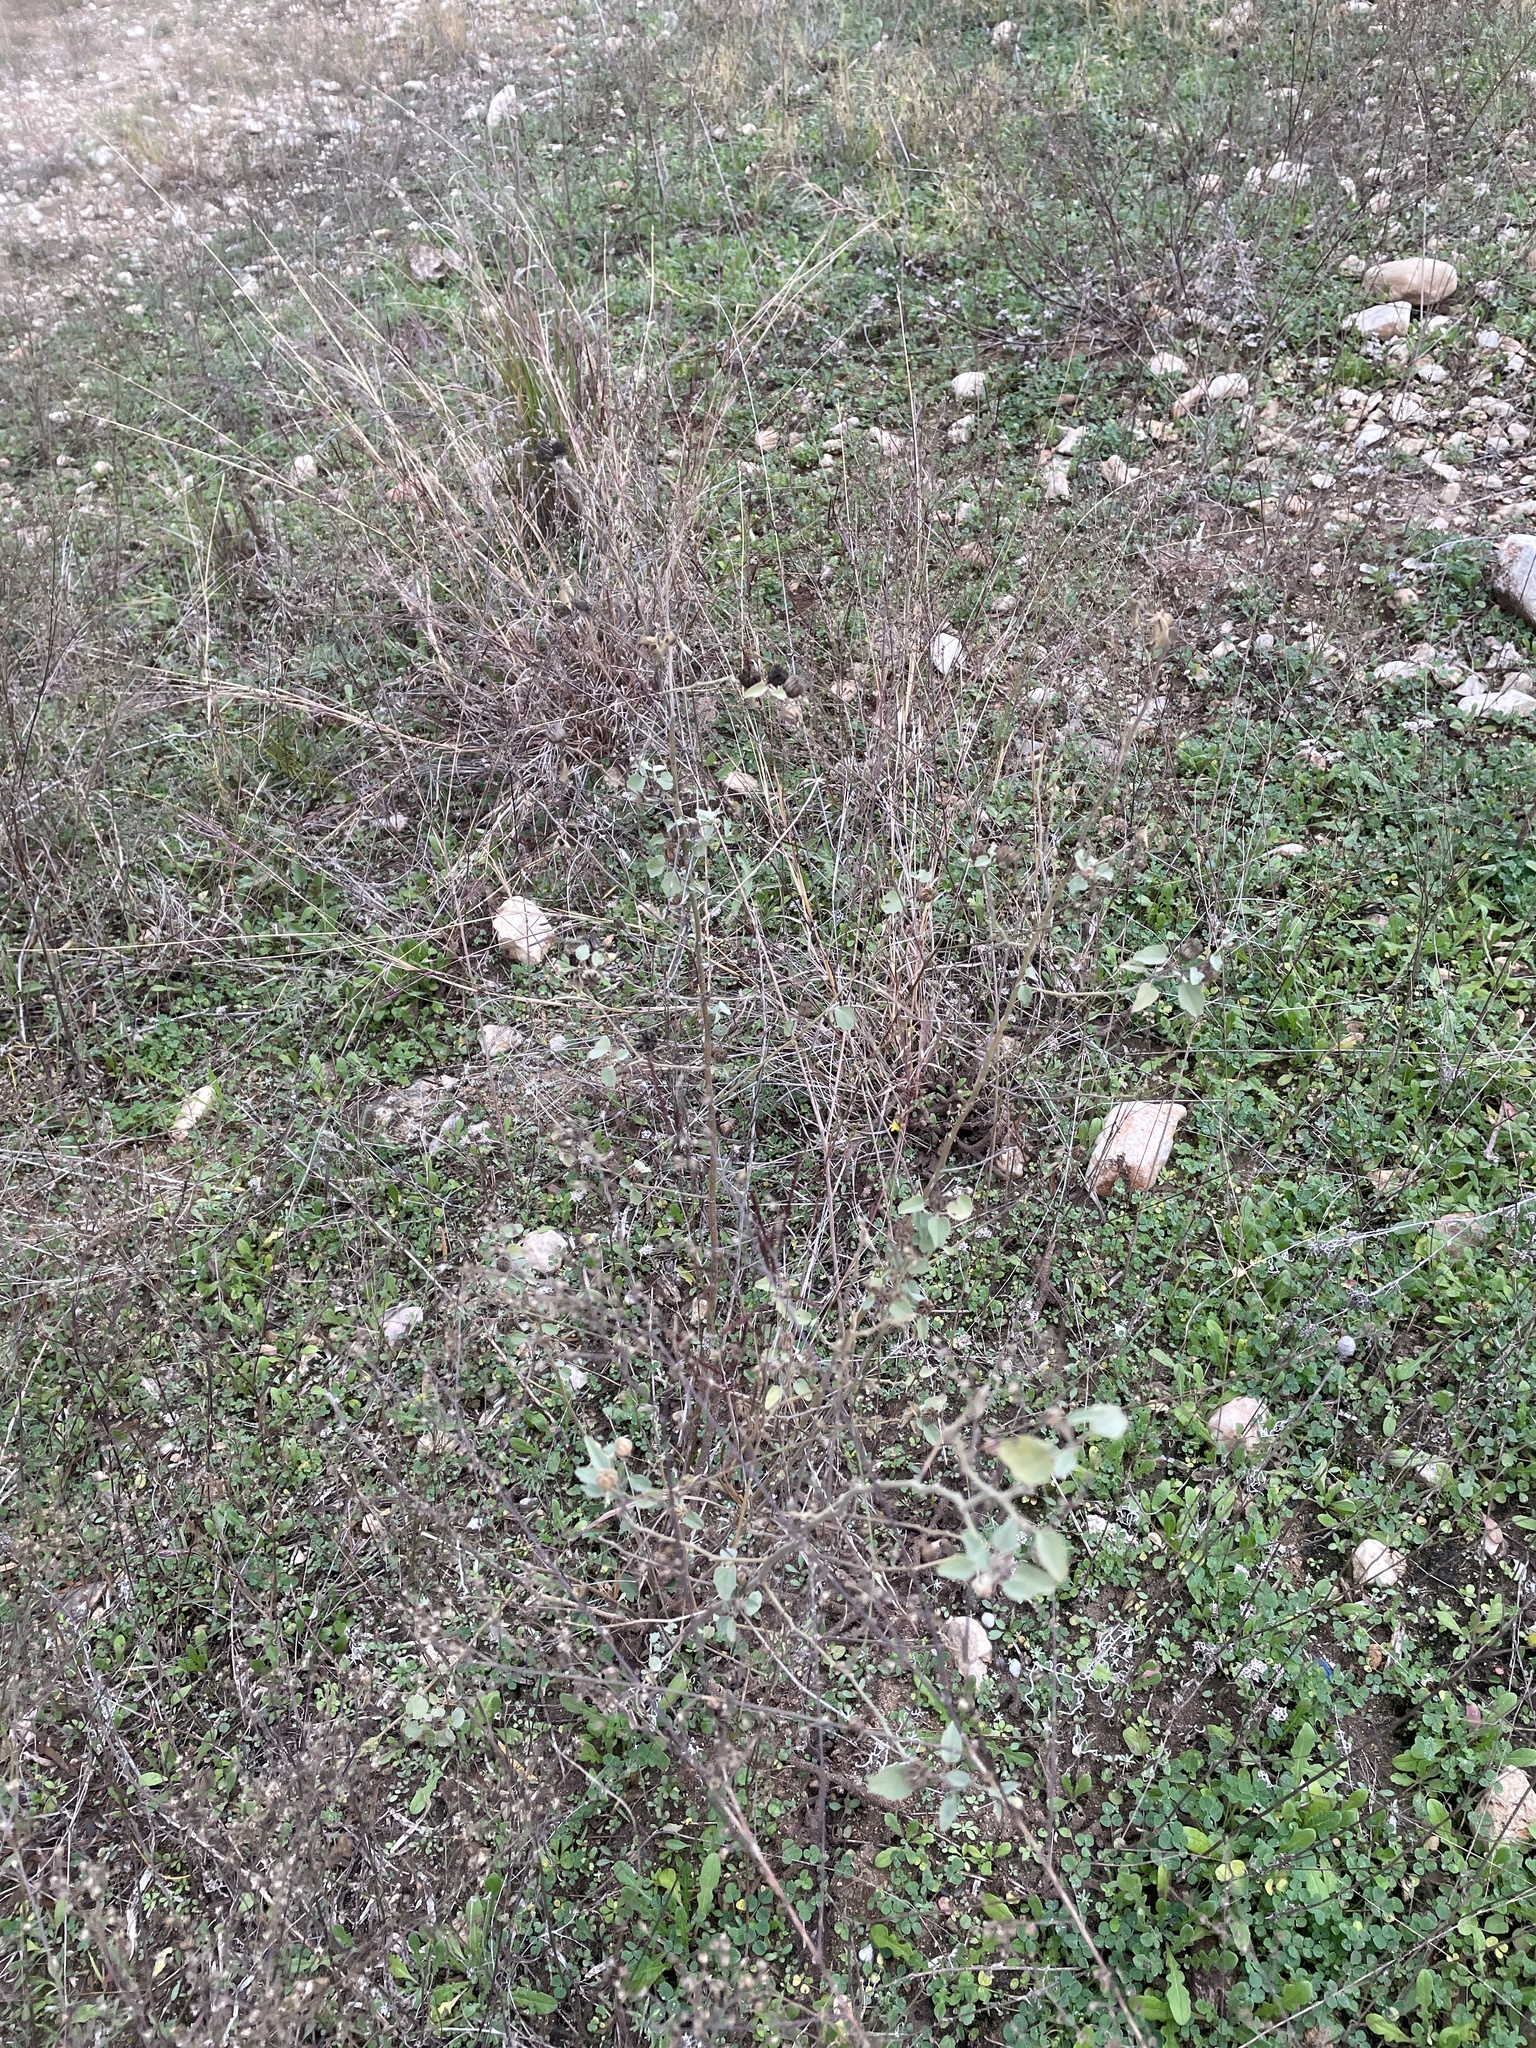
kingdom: Plantae
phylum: Tracheophyta
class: Magnoliopsida
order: Malvales
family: Malvaceae
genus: Abutilon
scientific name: Abutilon fruticosum
